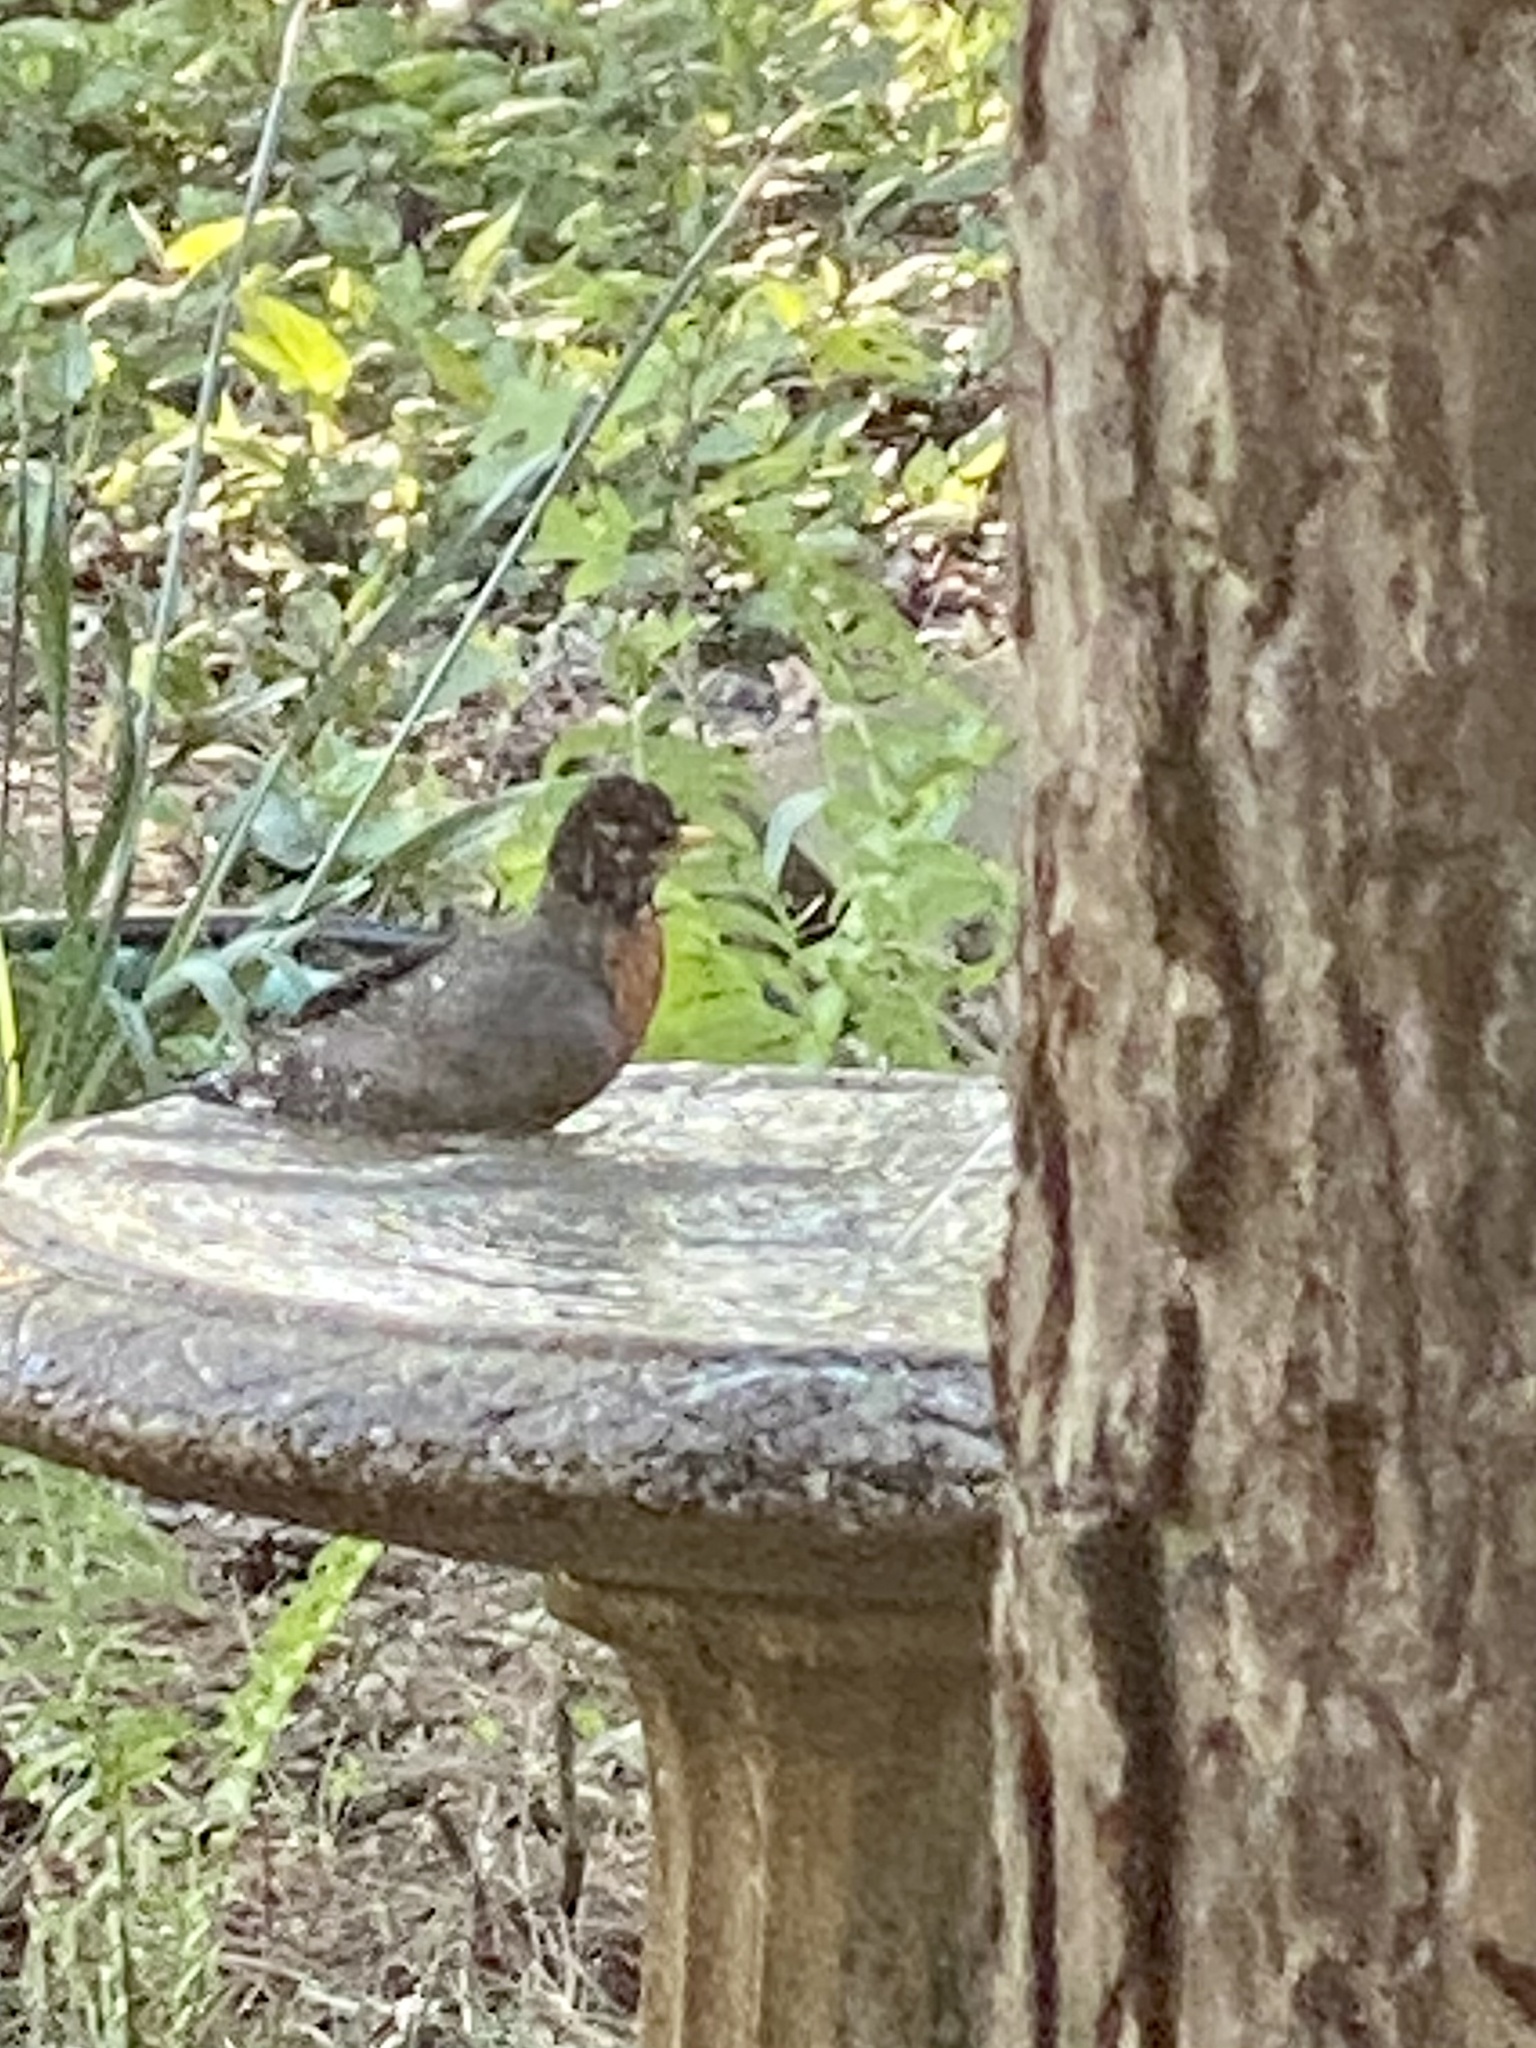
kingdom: Animalia
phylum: Chordata
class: Aves
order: Passeriformes
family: Turdidae
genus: Turdus
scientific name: Turdus migratorius
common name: American robin
